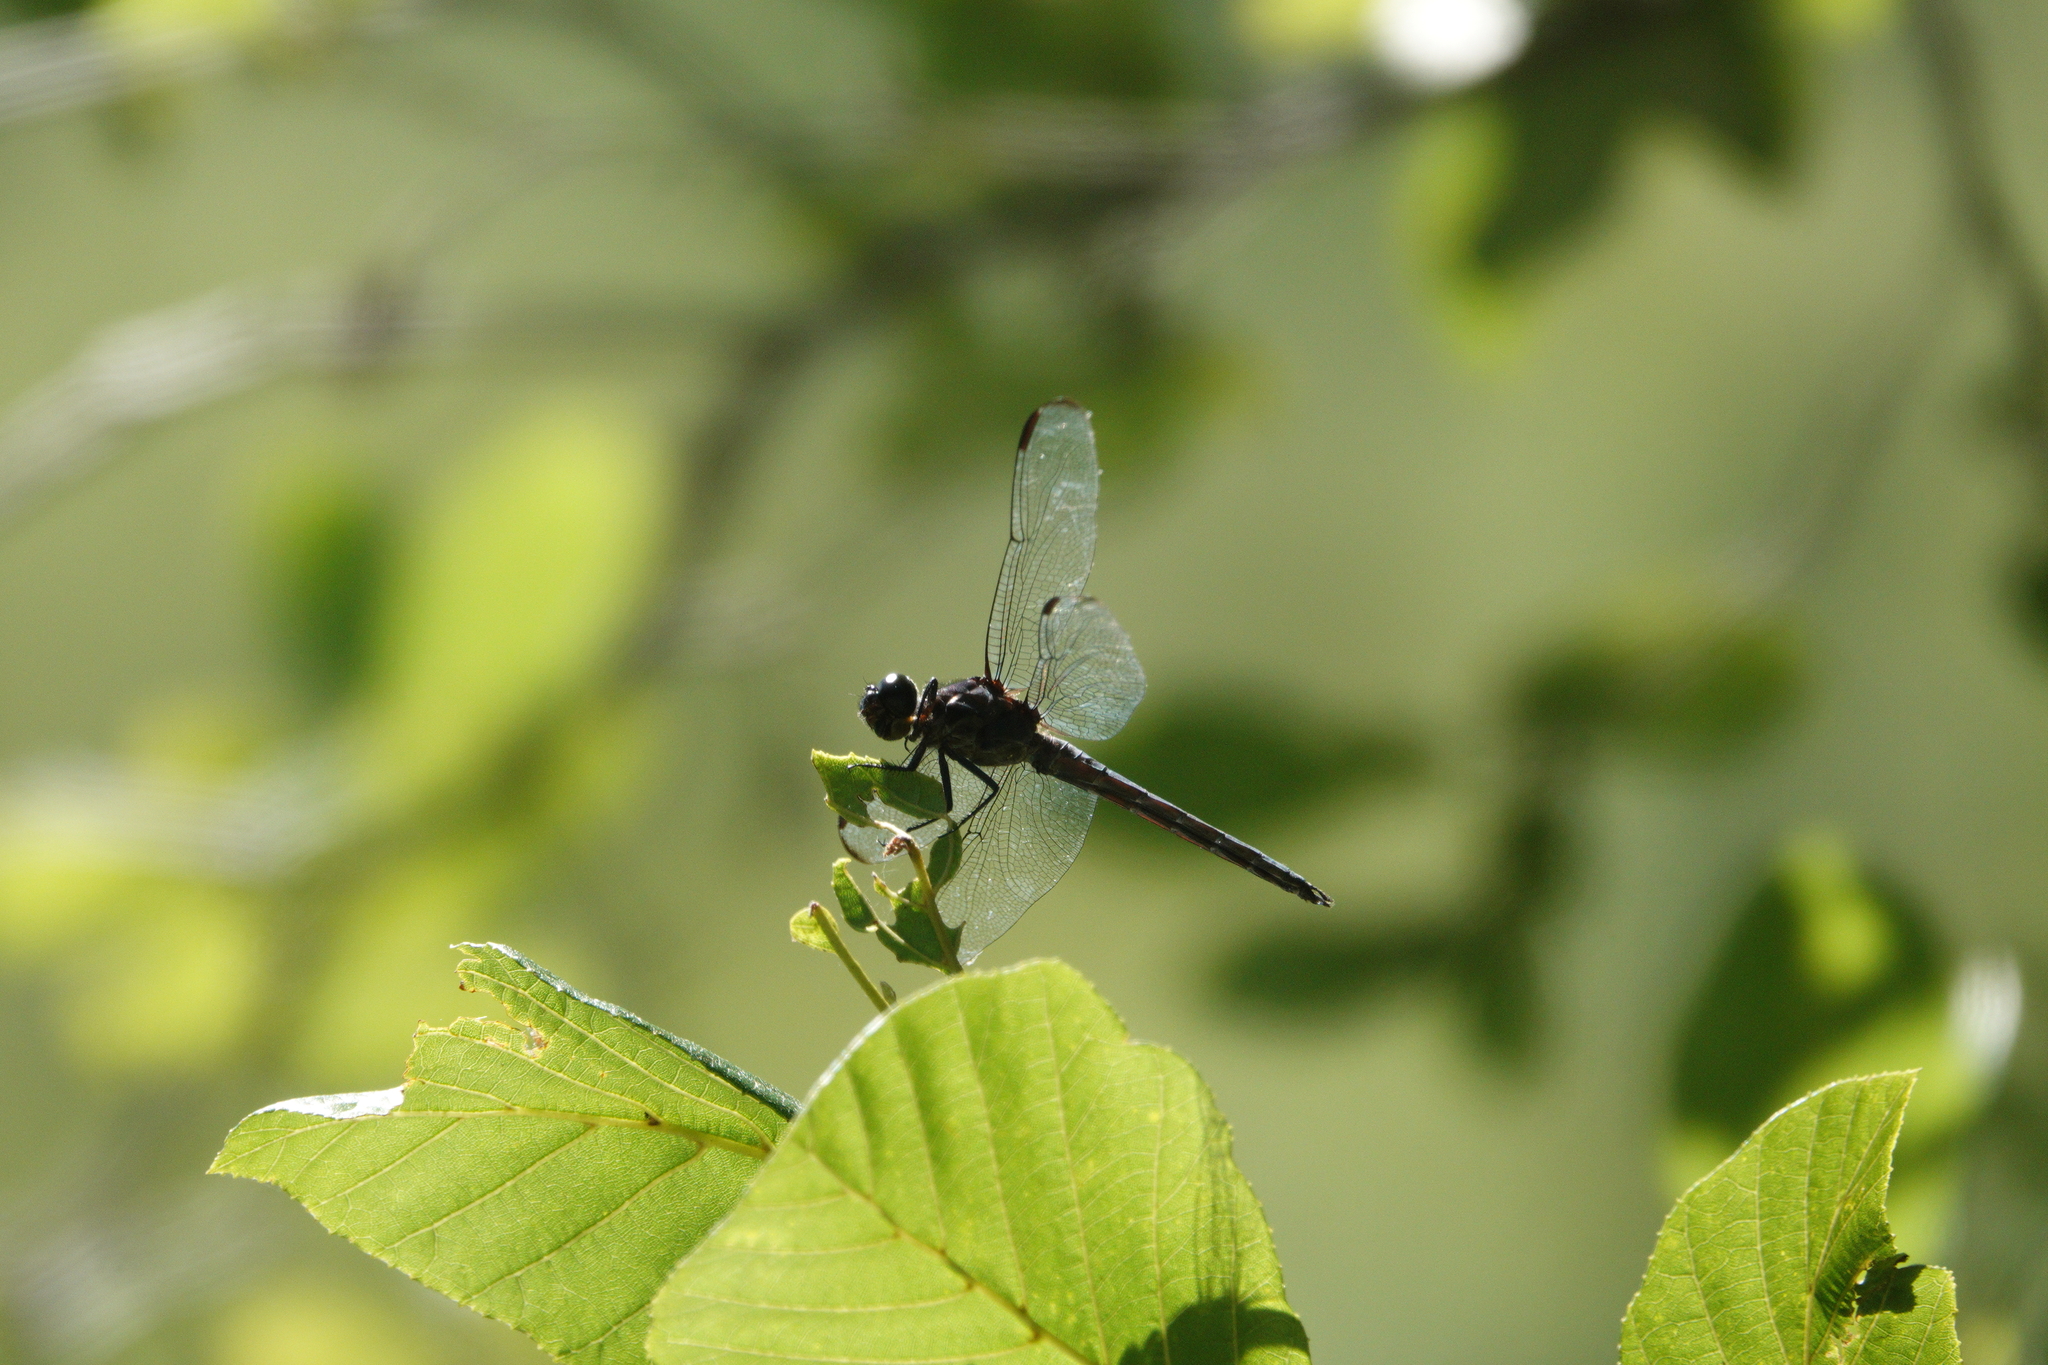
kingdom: Animalia
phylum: Arthropoda
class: Insecta
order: Odonata
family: Libellulidae
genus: Libellula
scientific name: Libellula incesta
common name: Slaty skimmer
